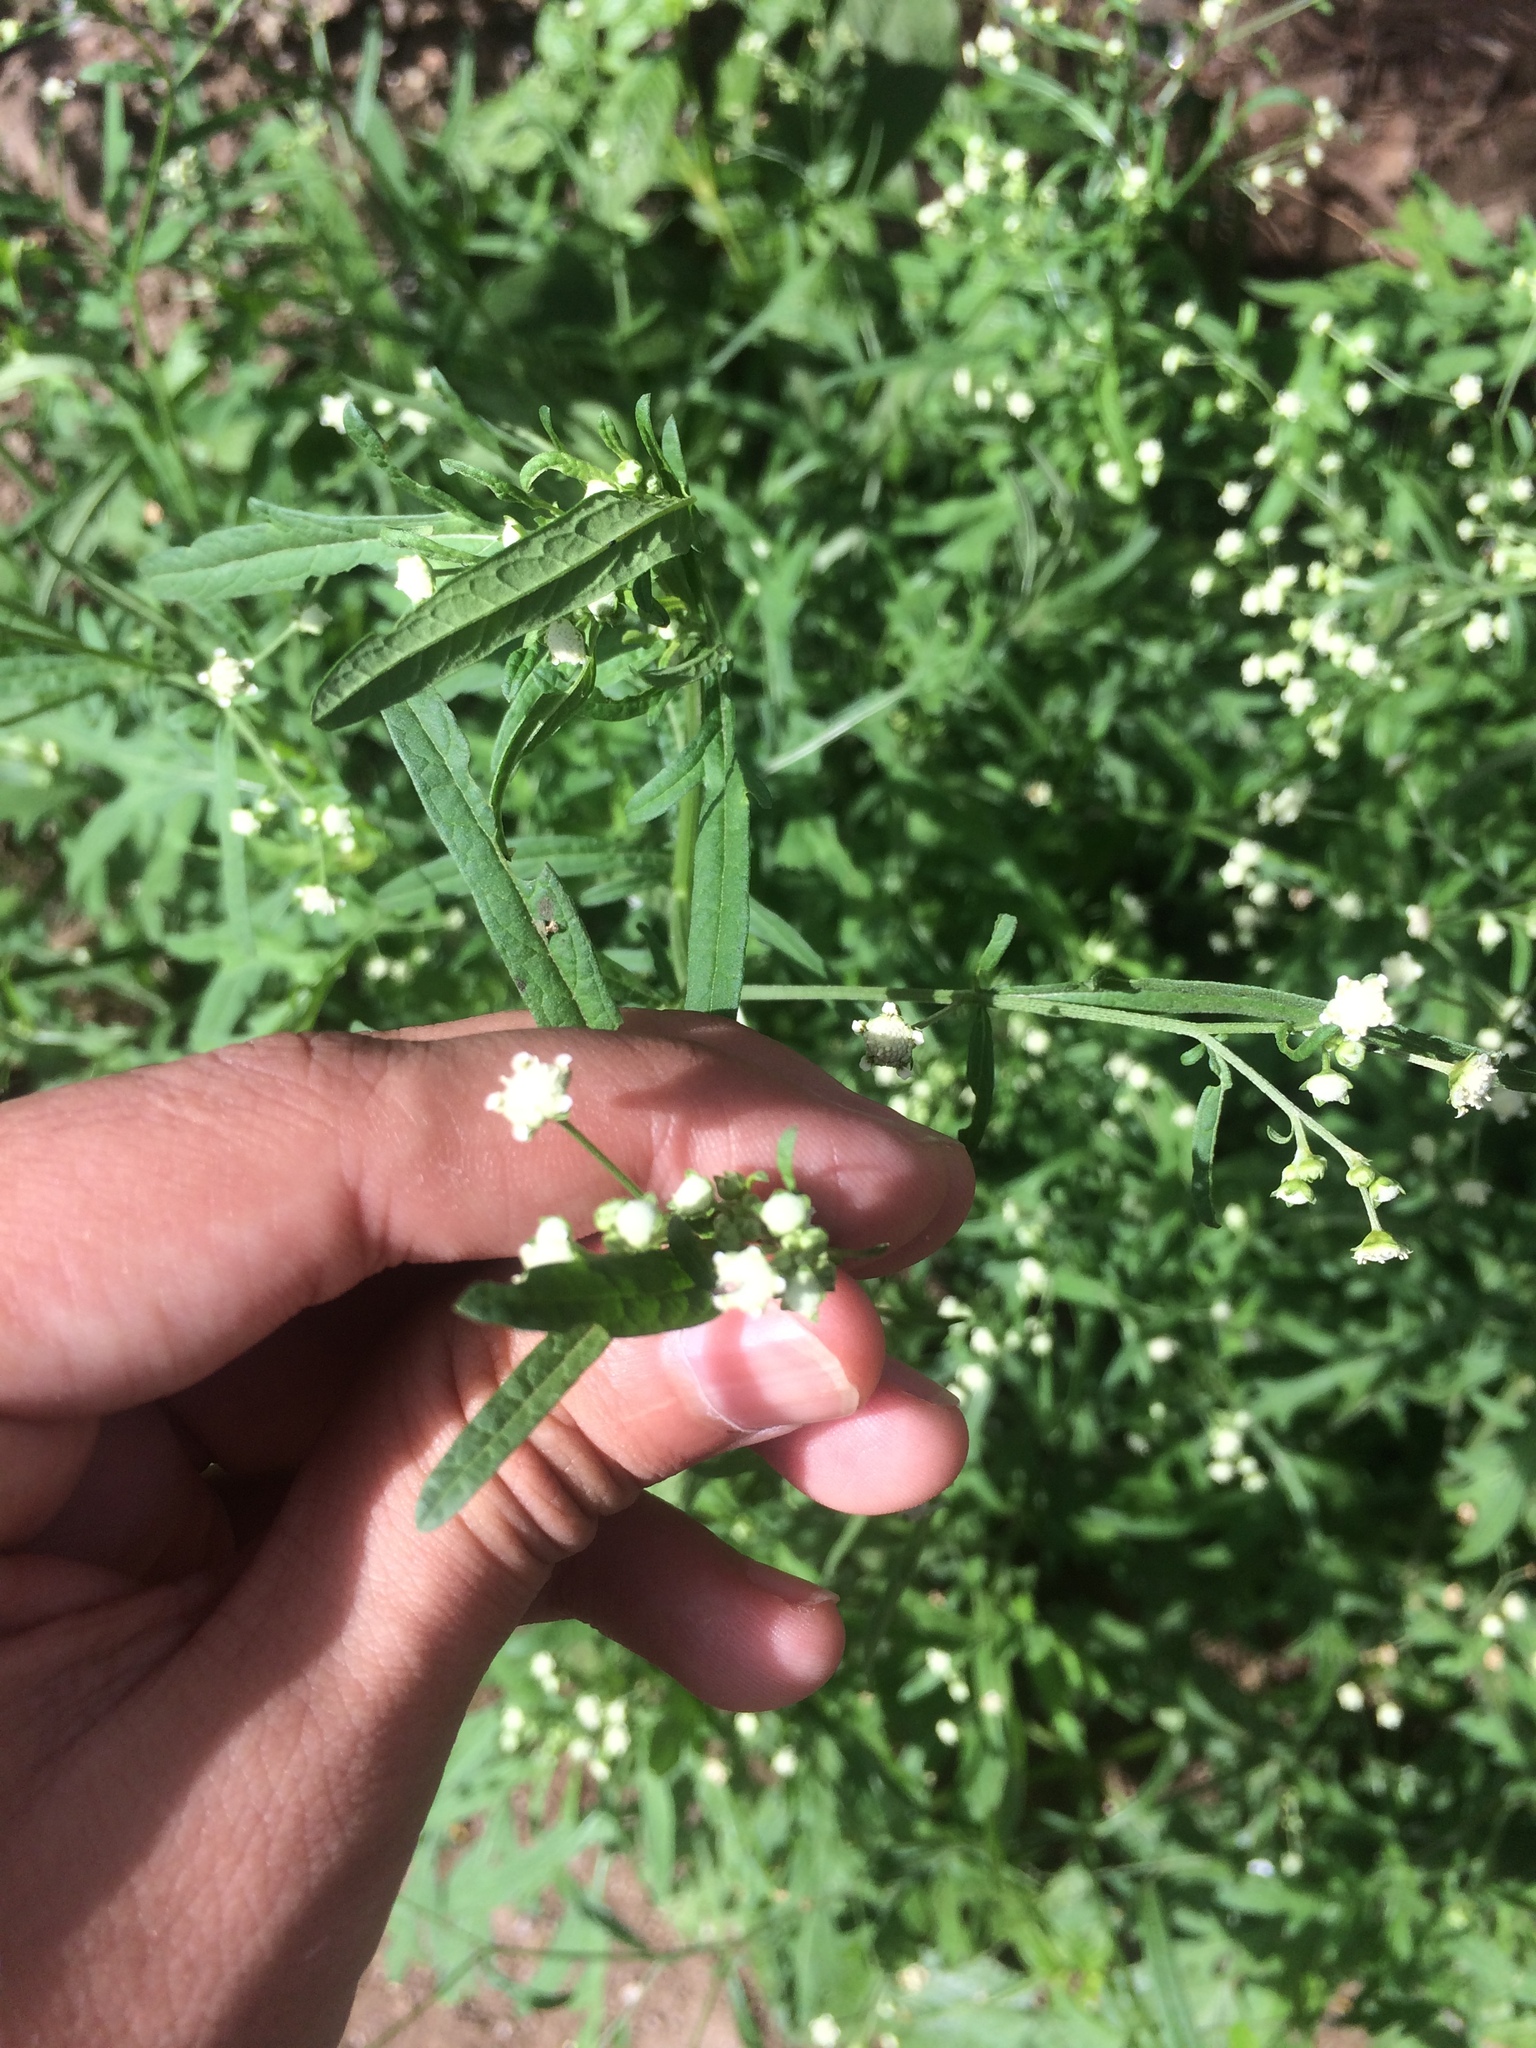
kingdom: Plantae
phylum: Tracheophyta
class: Magnoliopsida
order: Asterales
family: Asteraceae
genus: Parthenium
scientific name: Parthenium hysterophorus
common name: Santa maria feverfew
